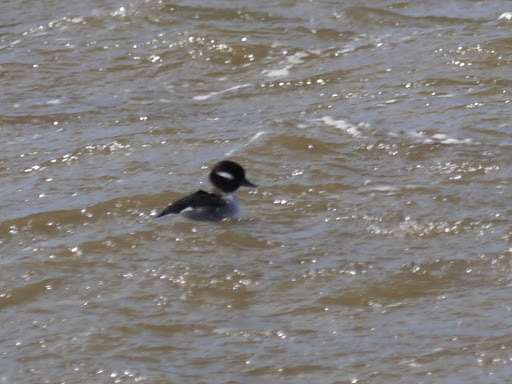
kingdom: Animalia
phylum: Chordata
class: Aves
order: Anseriformes
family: Anatidae
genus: Bucephala
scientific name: Bucephala albeola
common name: Bufflehead
